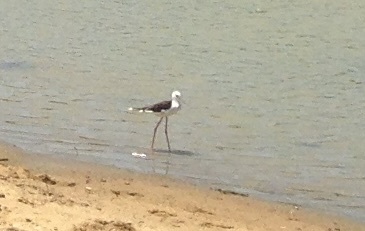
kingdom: Animalia
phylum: Chordata
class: Aves
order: Charadriiformes
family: Recurvirostridae
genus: Himantopus
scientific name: Himantopus himantopus
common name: Black-winged stilt
